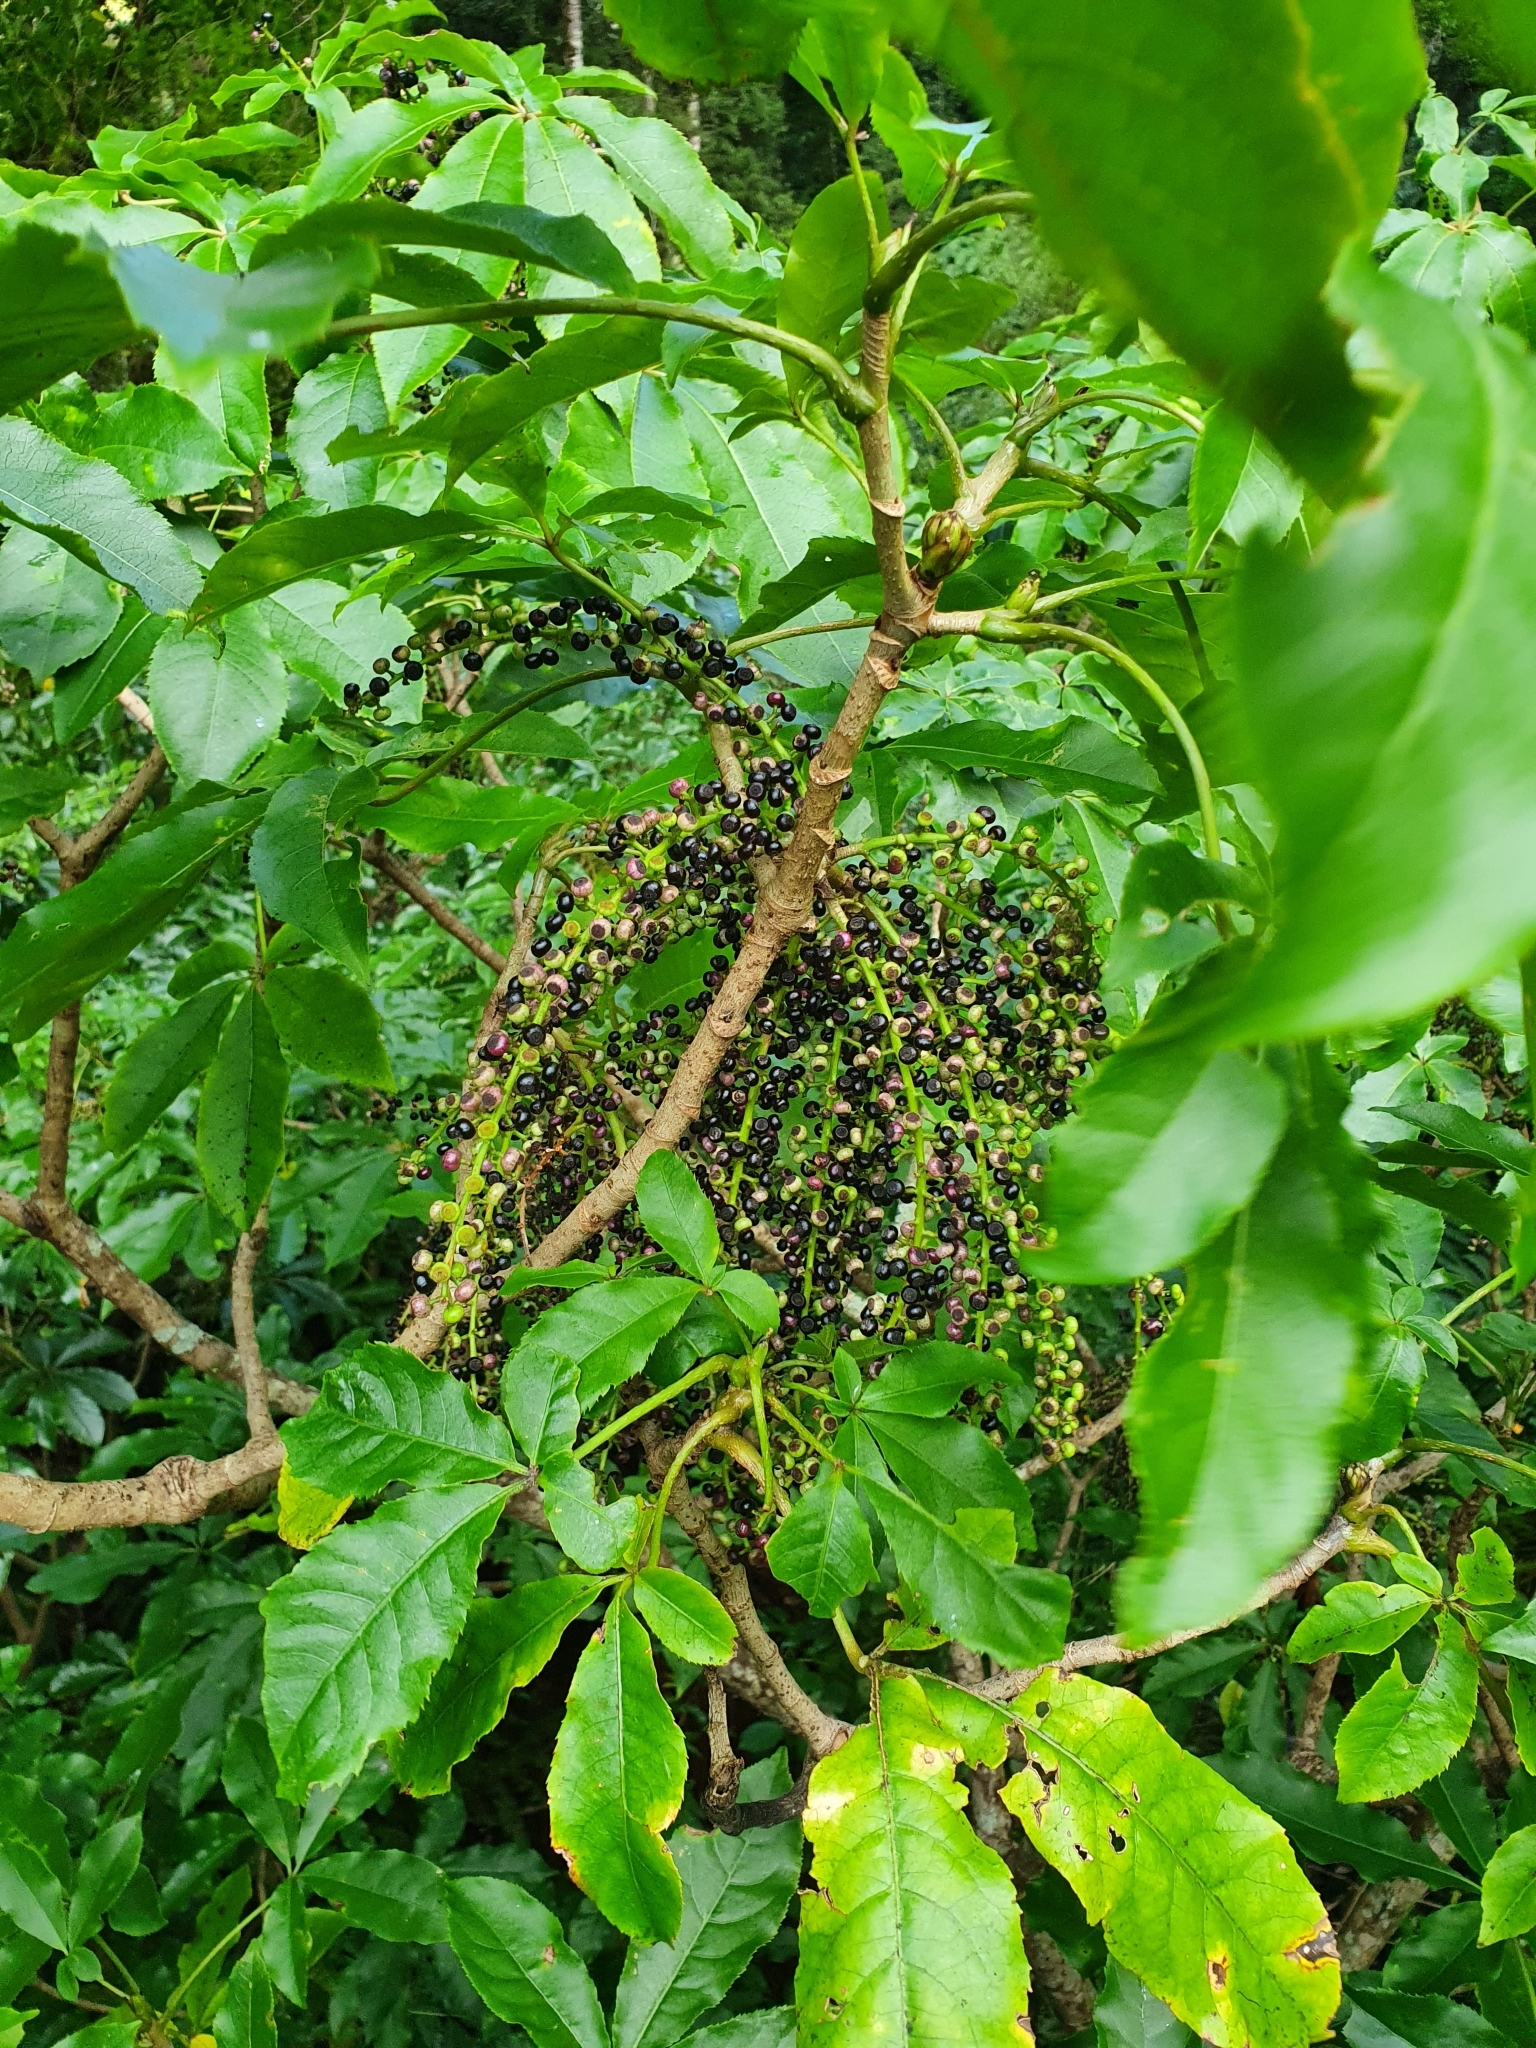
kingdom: Plantae
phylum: Tracheophyta
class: Magnoliopsida
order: Apiales
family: Araliaceae
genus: Schefflera
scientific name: Schefflera digitata
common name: Pate
